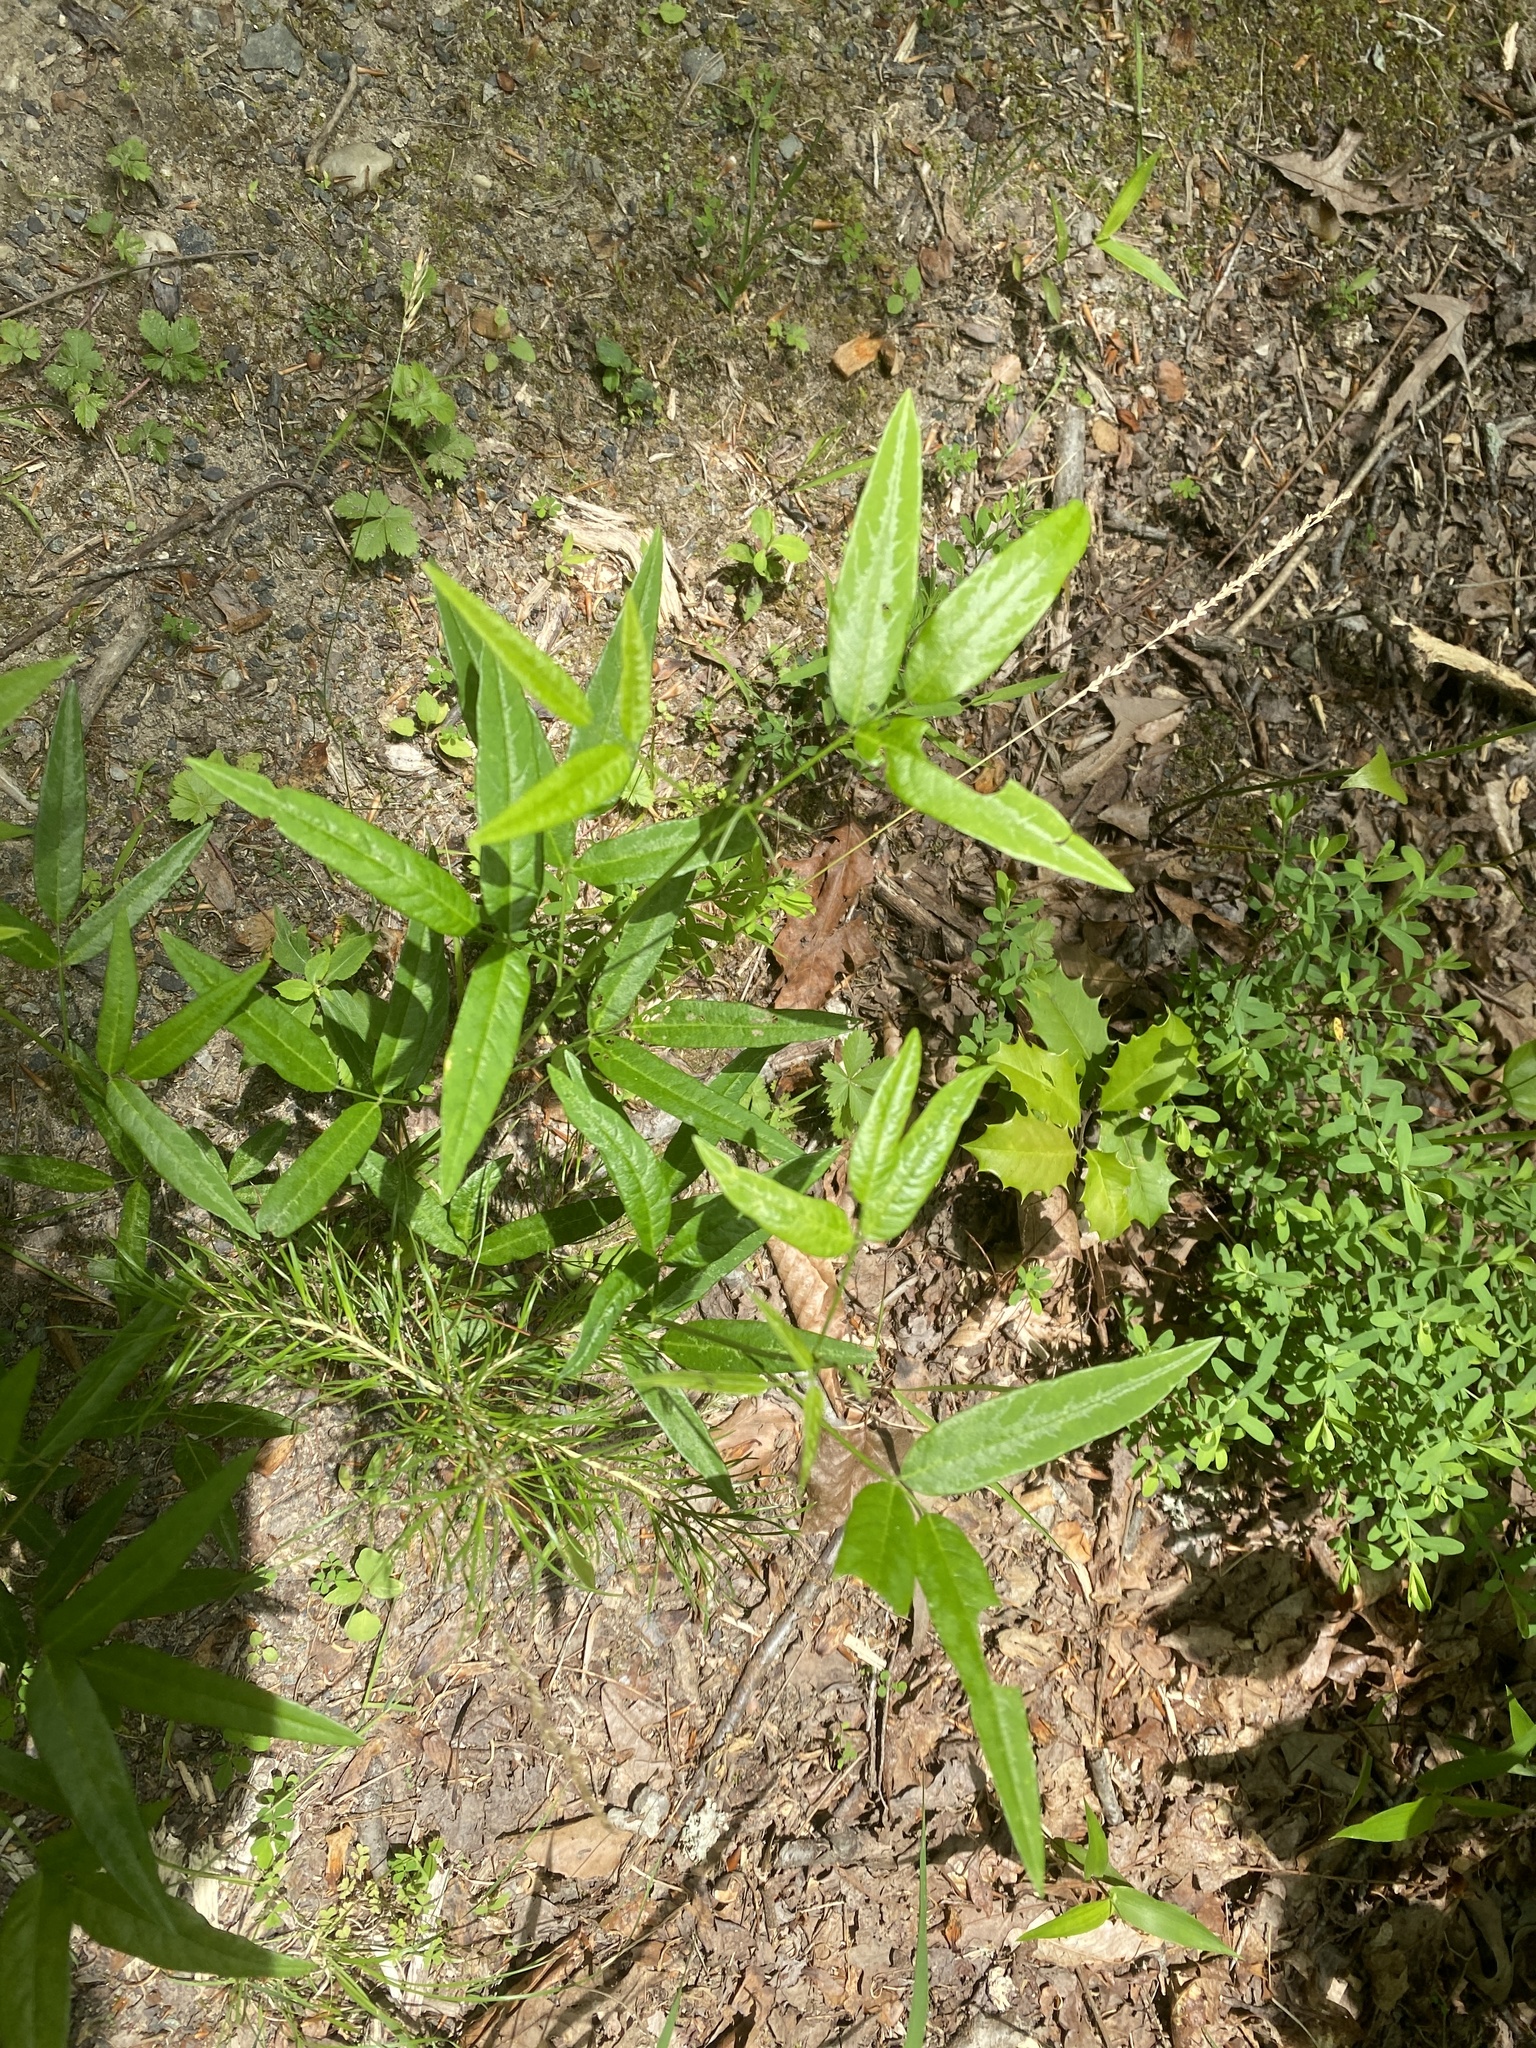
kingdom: Plantae
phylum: Tracheophyta
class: Magnoliopsida
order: Fabales
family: Fabaceae
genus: Desmodium
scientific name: Desmodium paniculatum
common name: Panicled tick-clover
